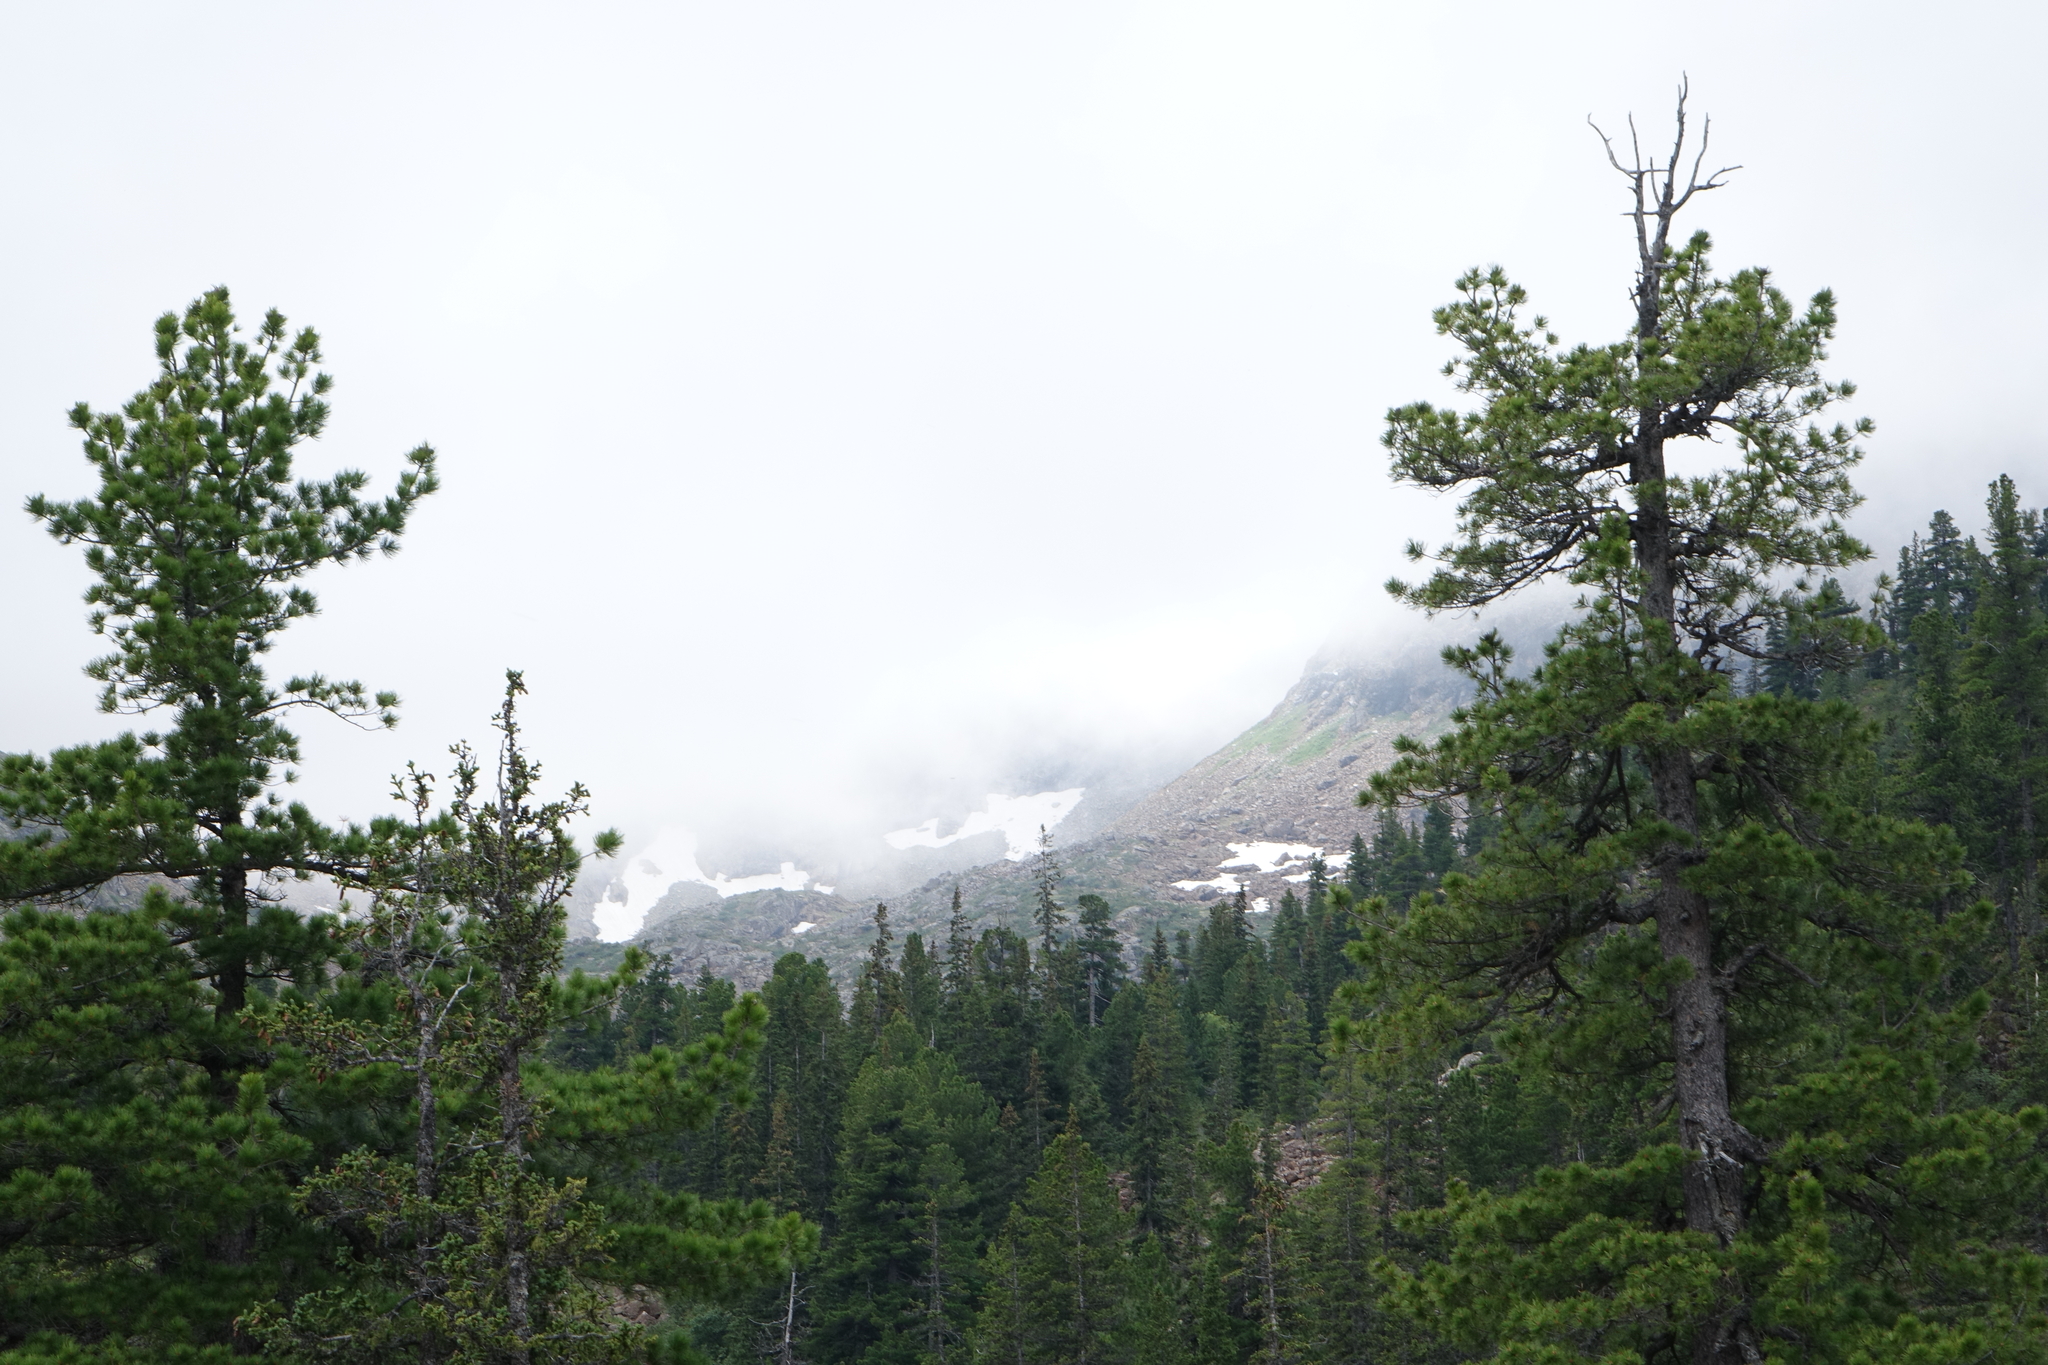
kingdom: Plantae
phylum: Tracheophyta
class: Pinopsida
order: Pinales
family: Pinaceae
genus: Pinus
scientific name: Pinus sibirica
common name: Siberian pine
